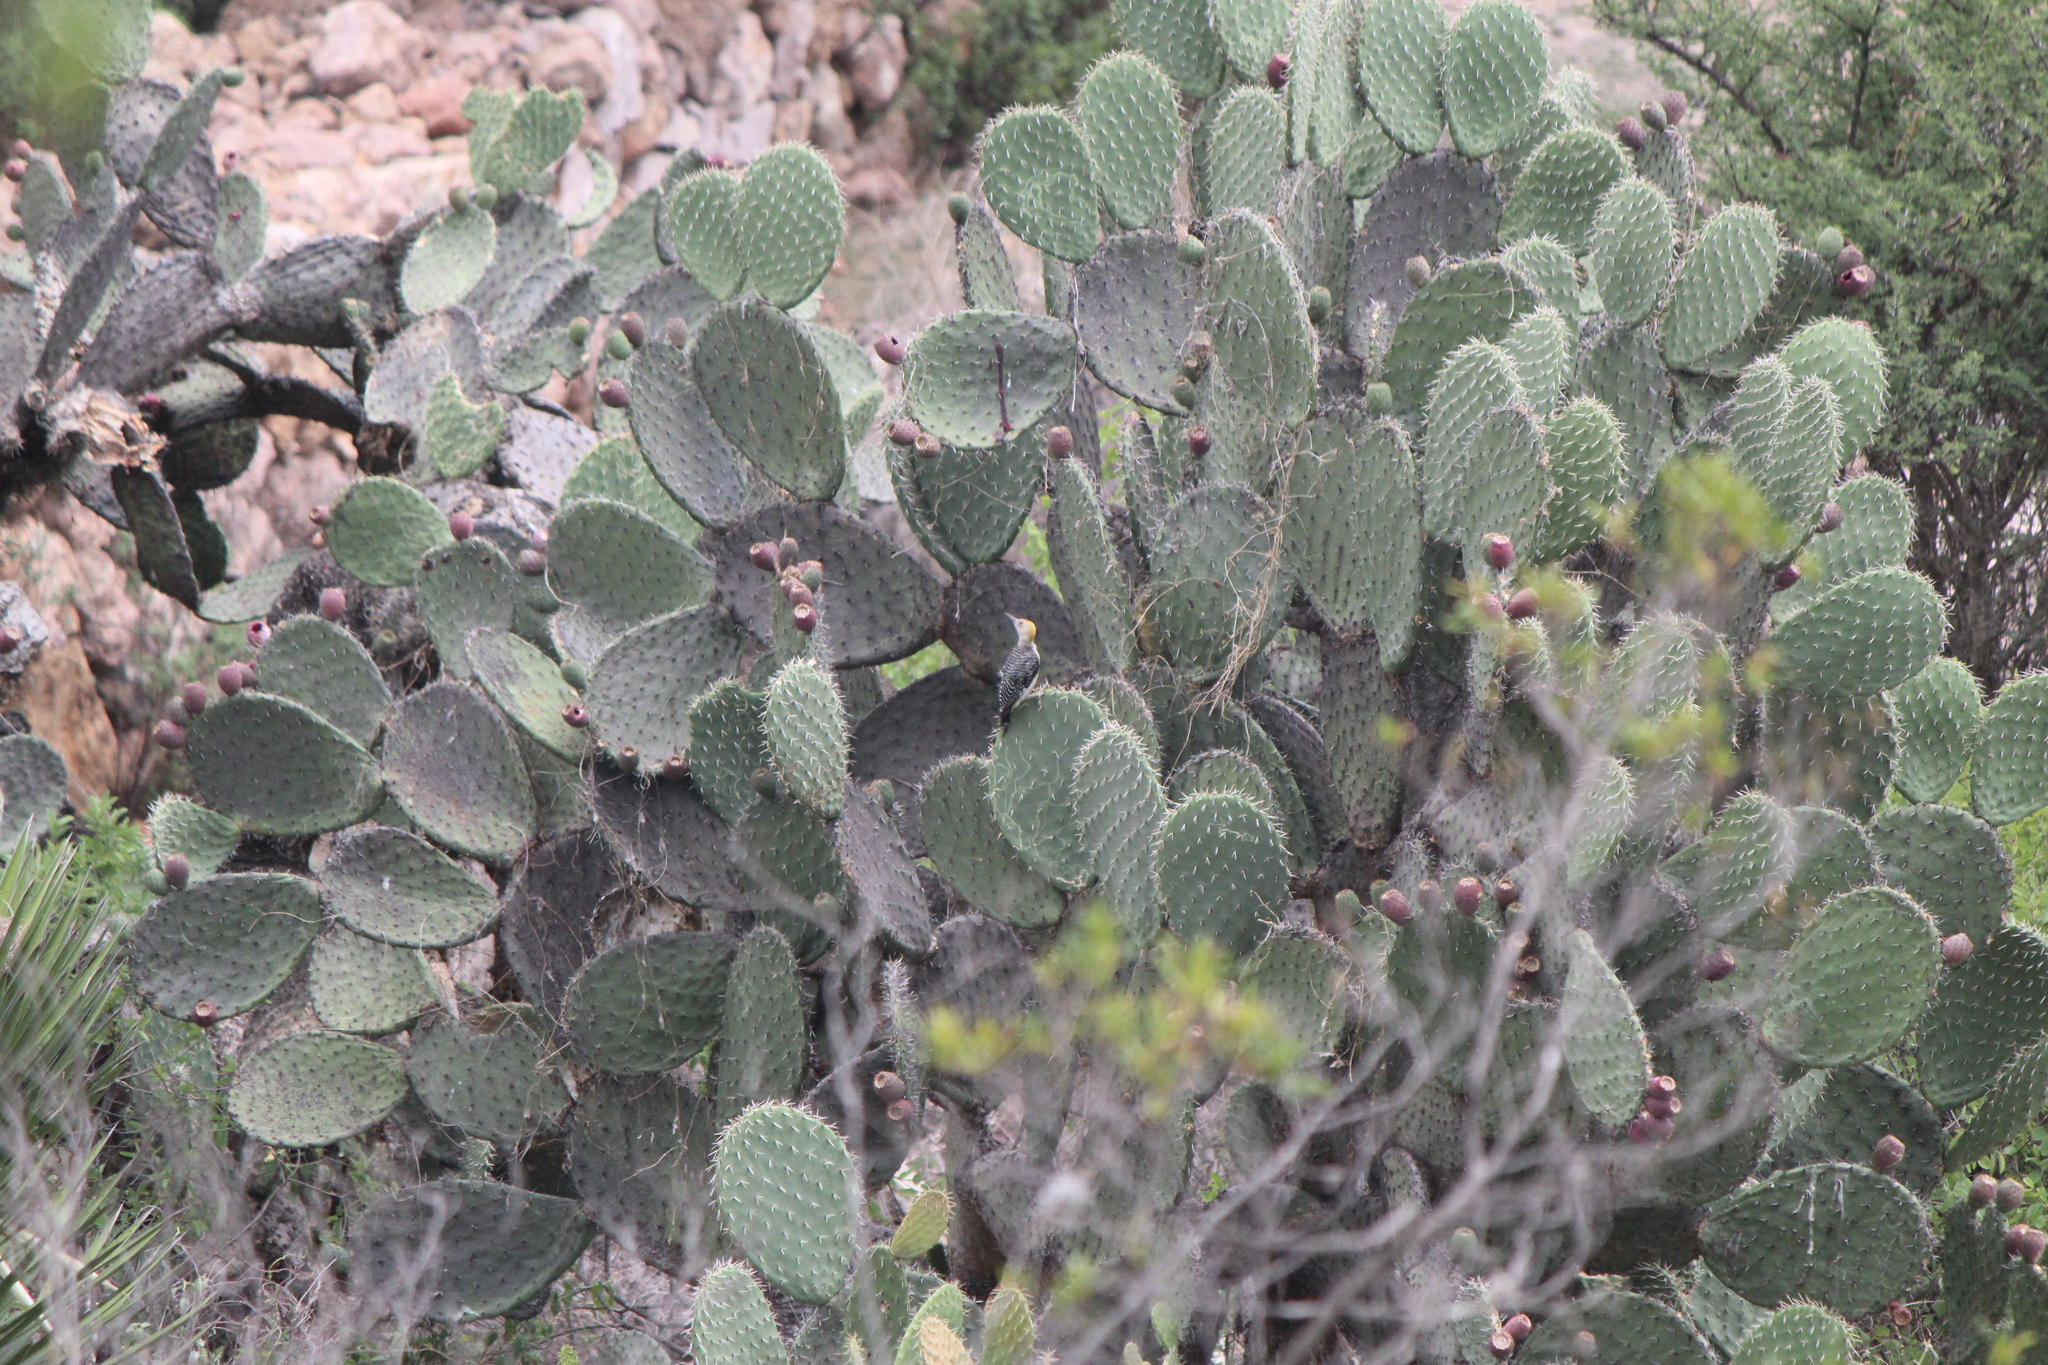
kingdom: Animalia
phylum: Chordata
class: Aves
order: Piciformes
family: Picidae
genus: Melanerpes
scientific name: Melanerpes aurifrons
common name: Golden-fronted woodpecker
